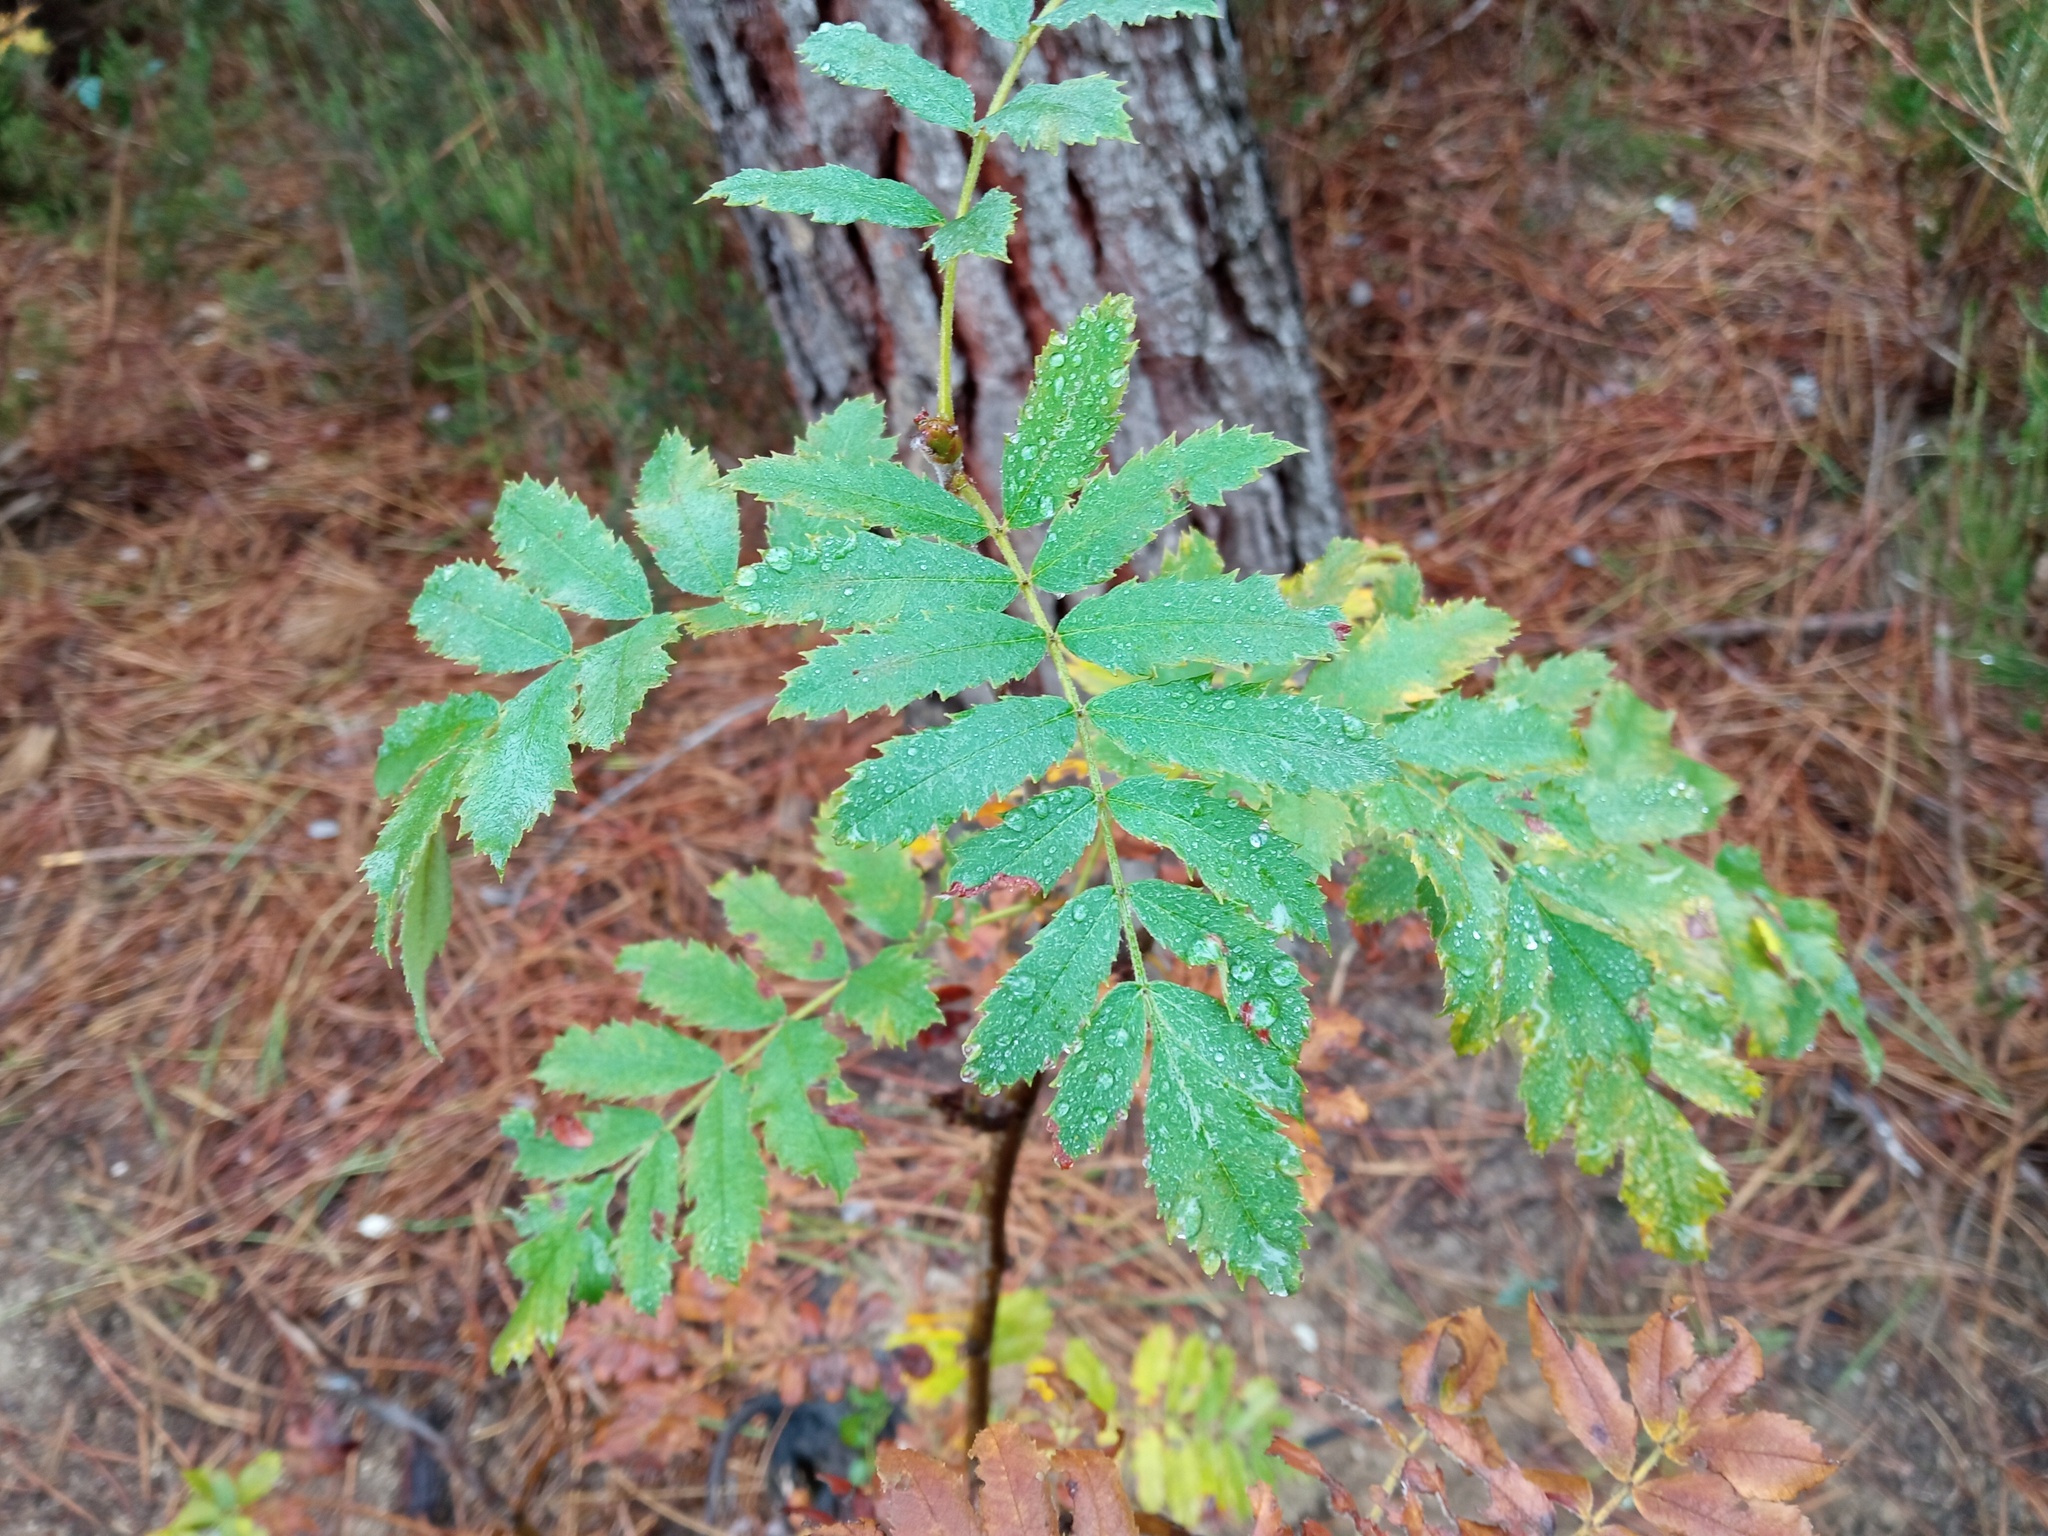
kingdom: Plantae
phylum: Tracheophyta
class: Magnoliopsida
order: Rosales
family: Rosaceae
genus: Cormus
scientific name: Cormus domestica
